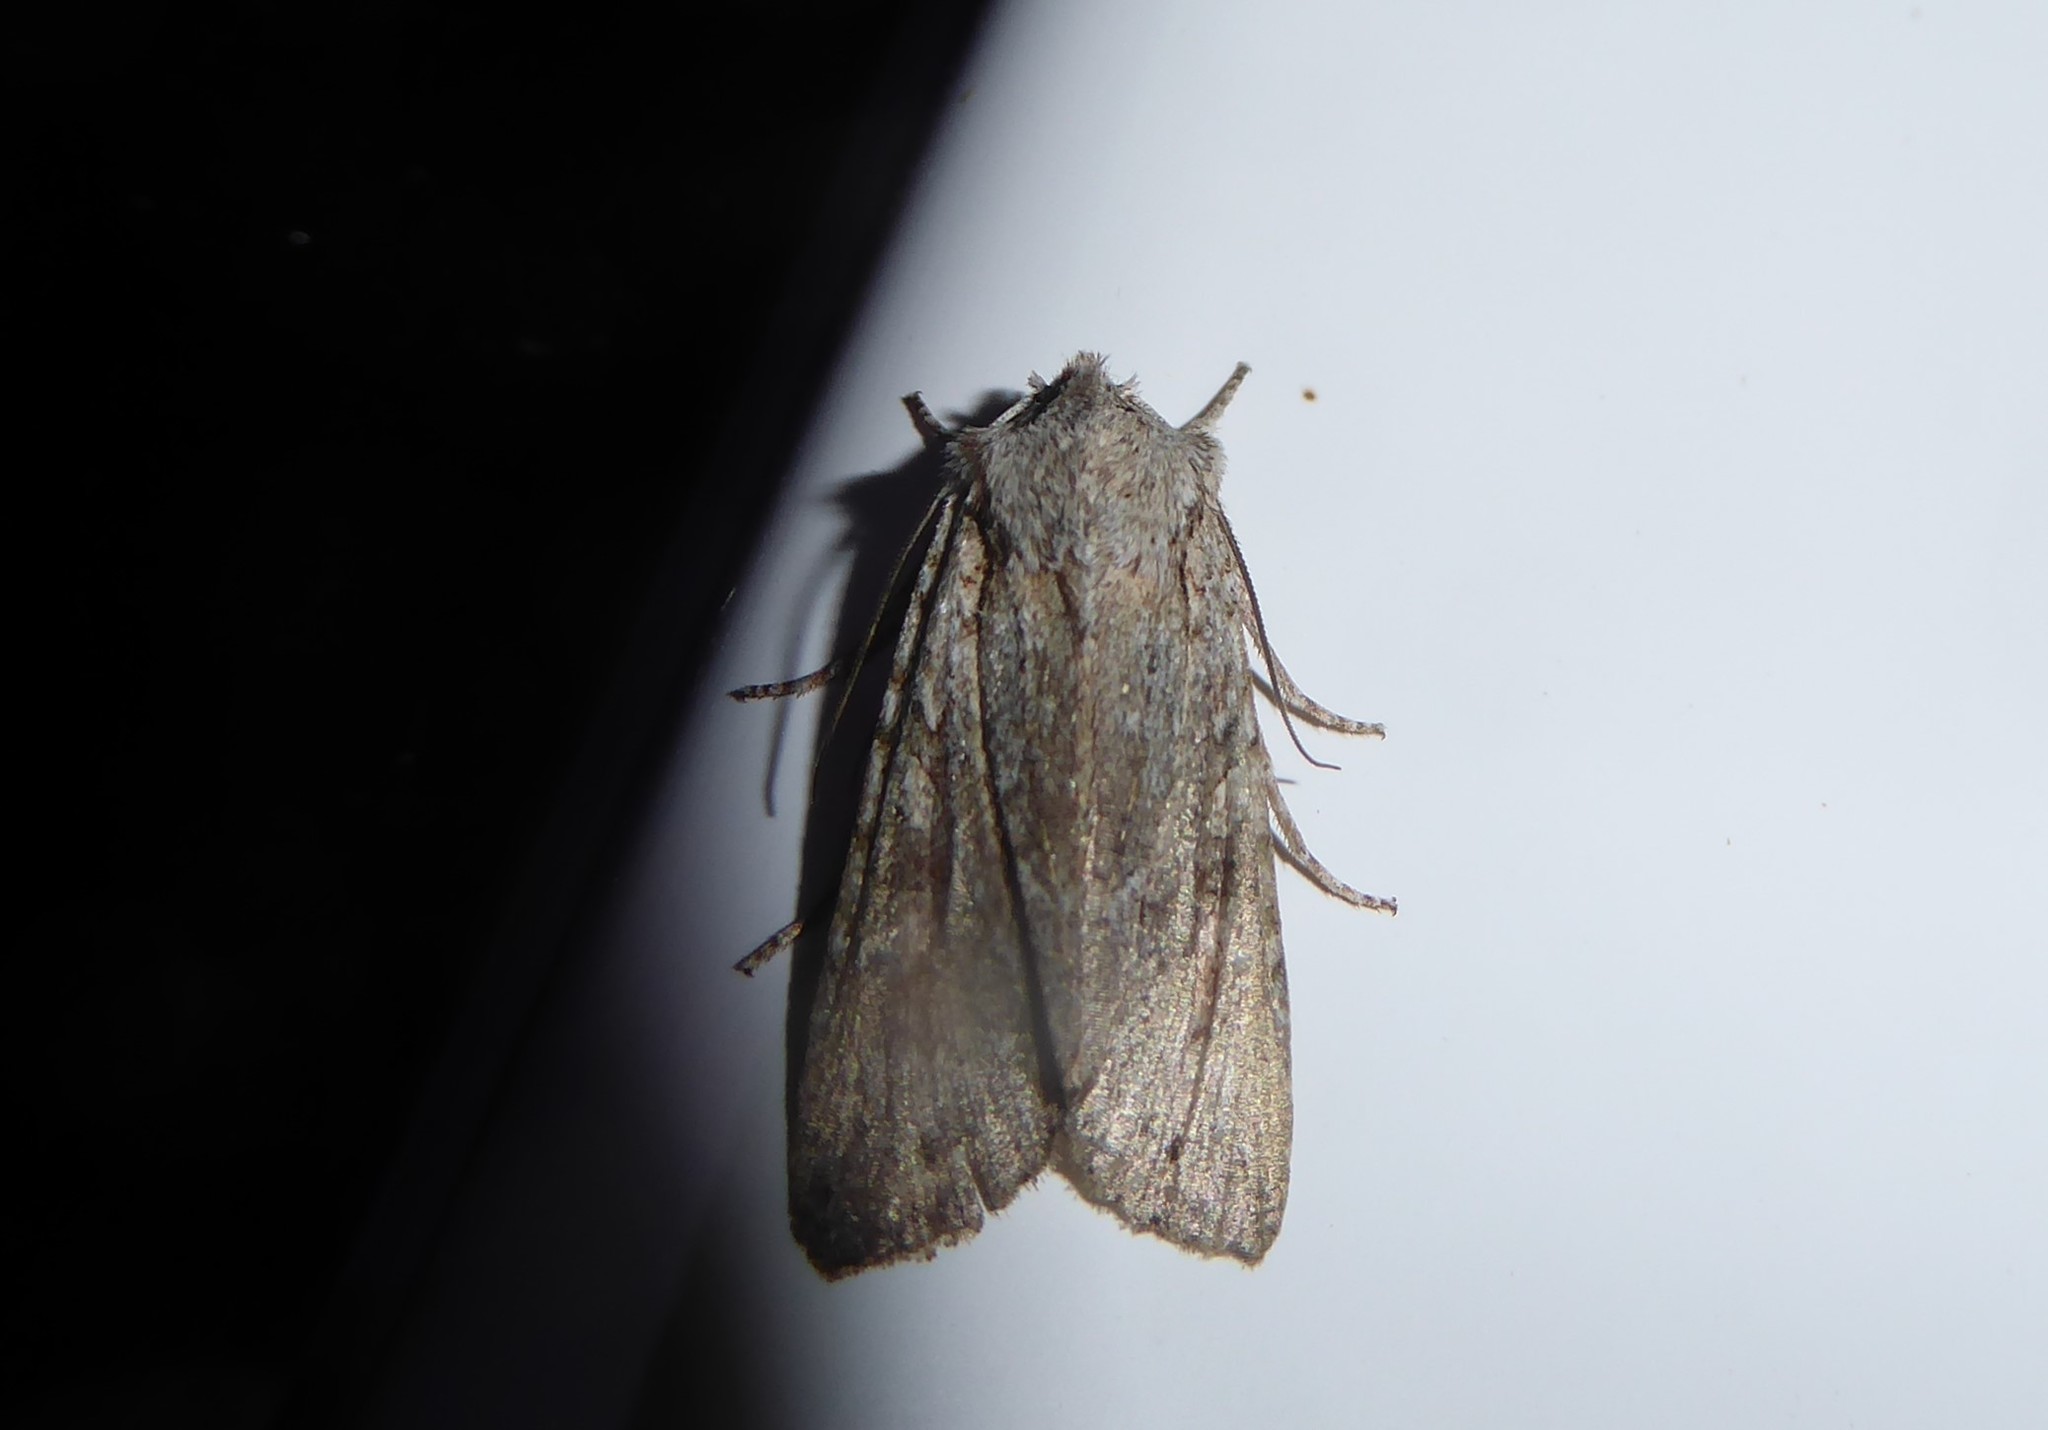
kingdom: Animalia
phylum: Arthropoda
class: Insecta
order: Lepidoptera
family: Noctuidae
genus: Ichneutica
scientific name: Ichneutica mutans
